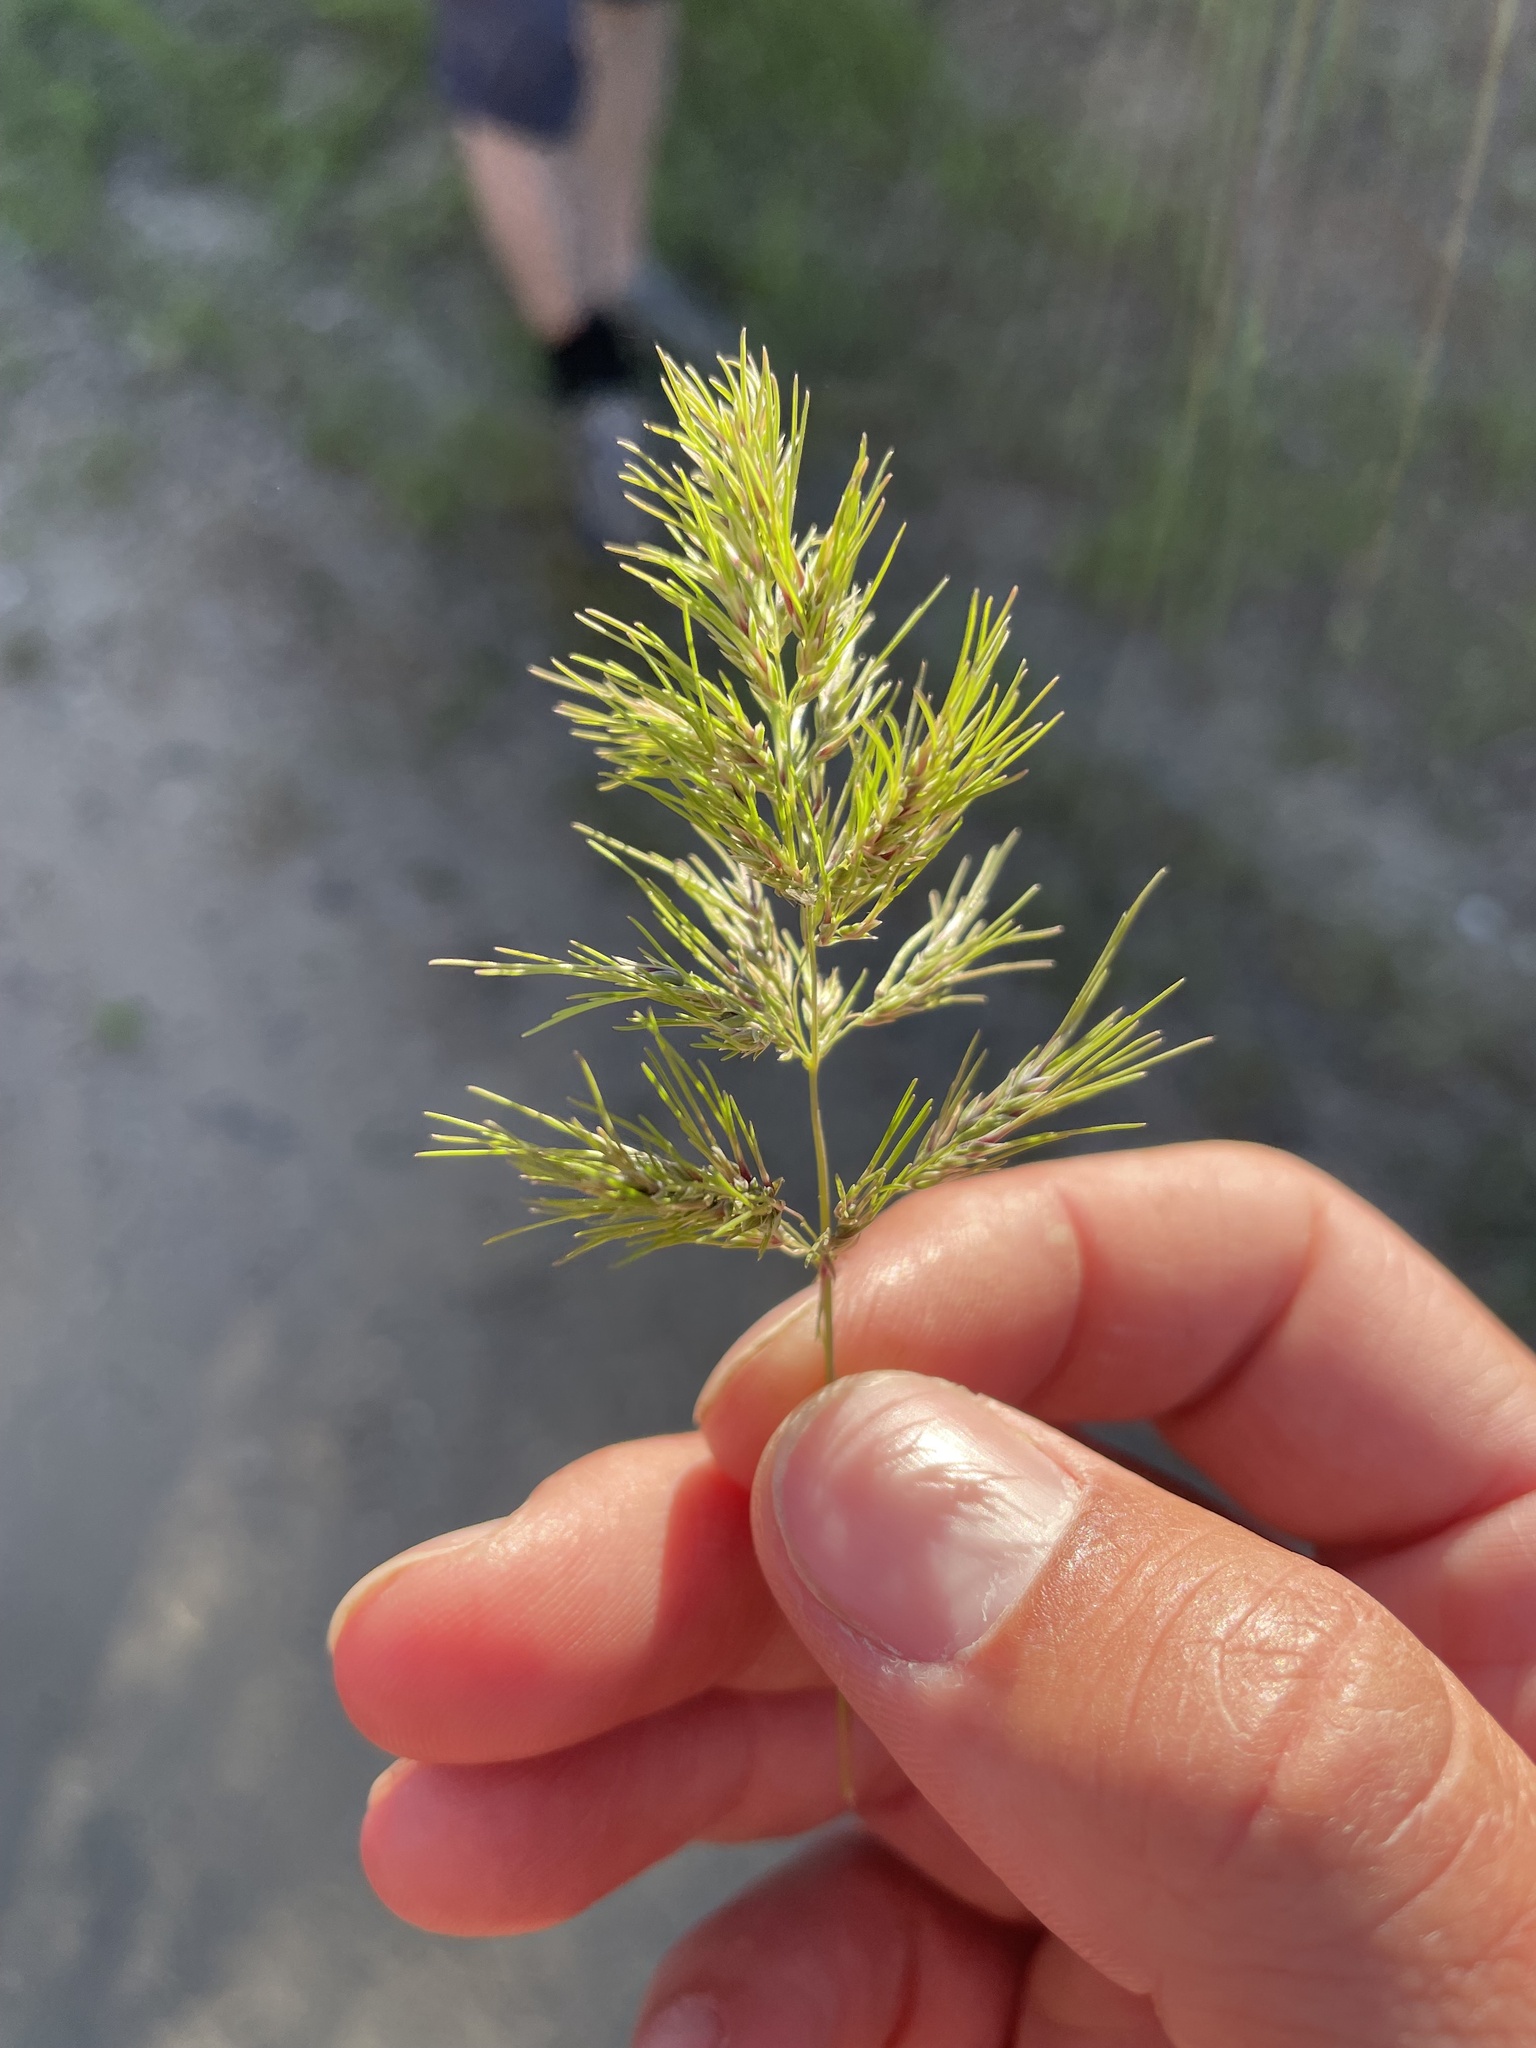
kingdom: Plantae
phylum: Tracheophyta
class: Liliopsida
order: Poales
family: Poaceae
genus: Poa
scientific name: Poa bulbosa
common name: Bulbous bluegrass
